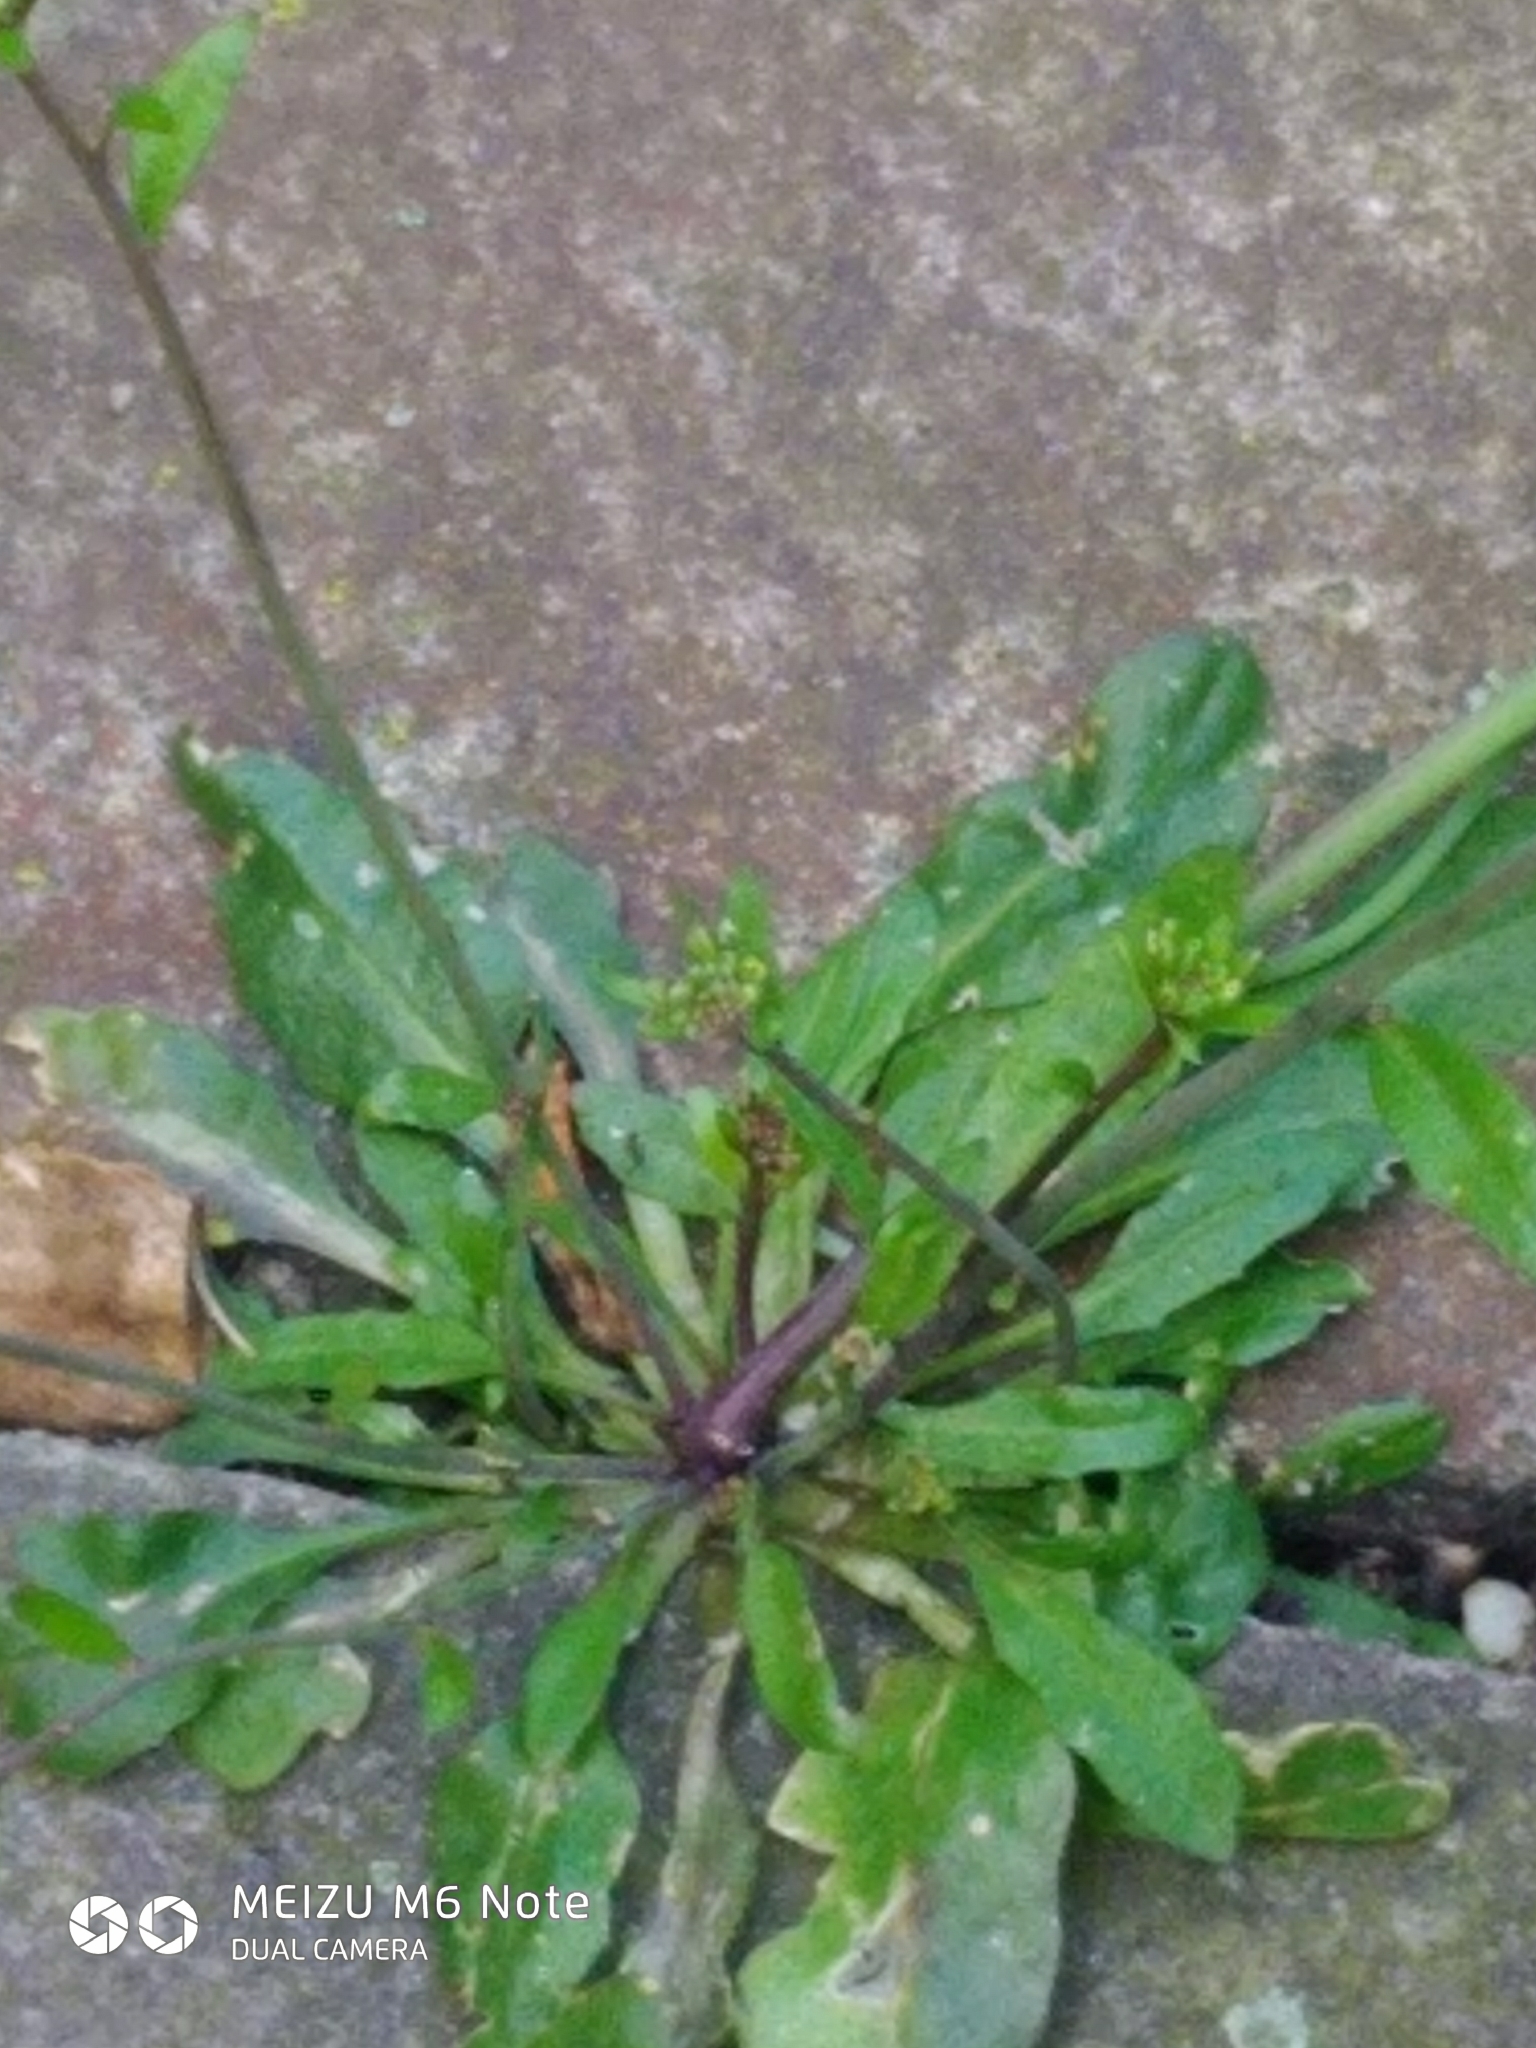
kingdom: Plantae
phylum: Tracheophyta
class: Magnoliopsida
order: Brassicales
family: Brassicaceae
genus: Arabidopsis
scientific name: Arabidopsis thaliana
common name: Thale cress
